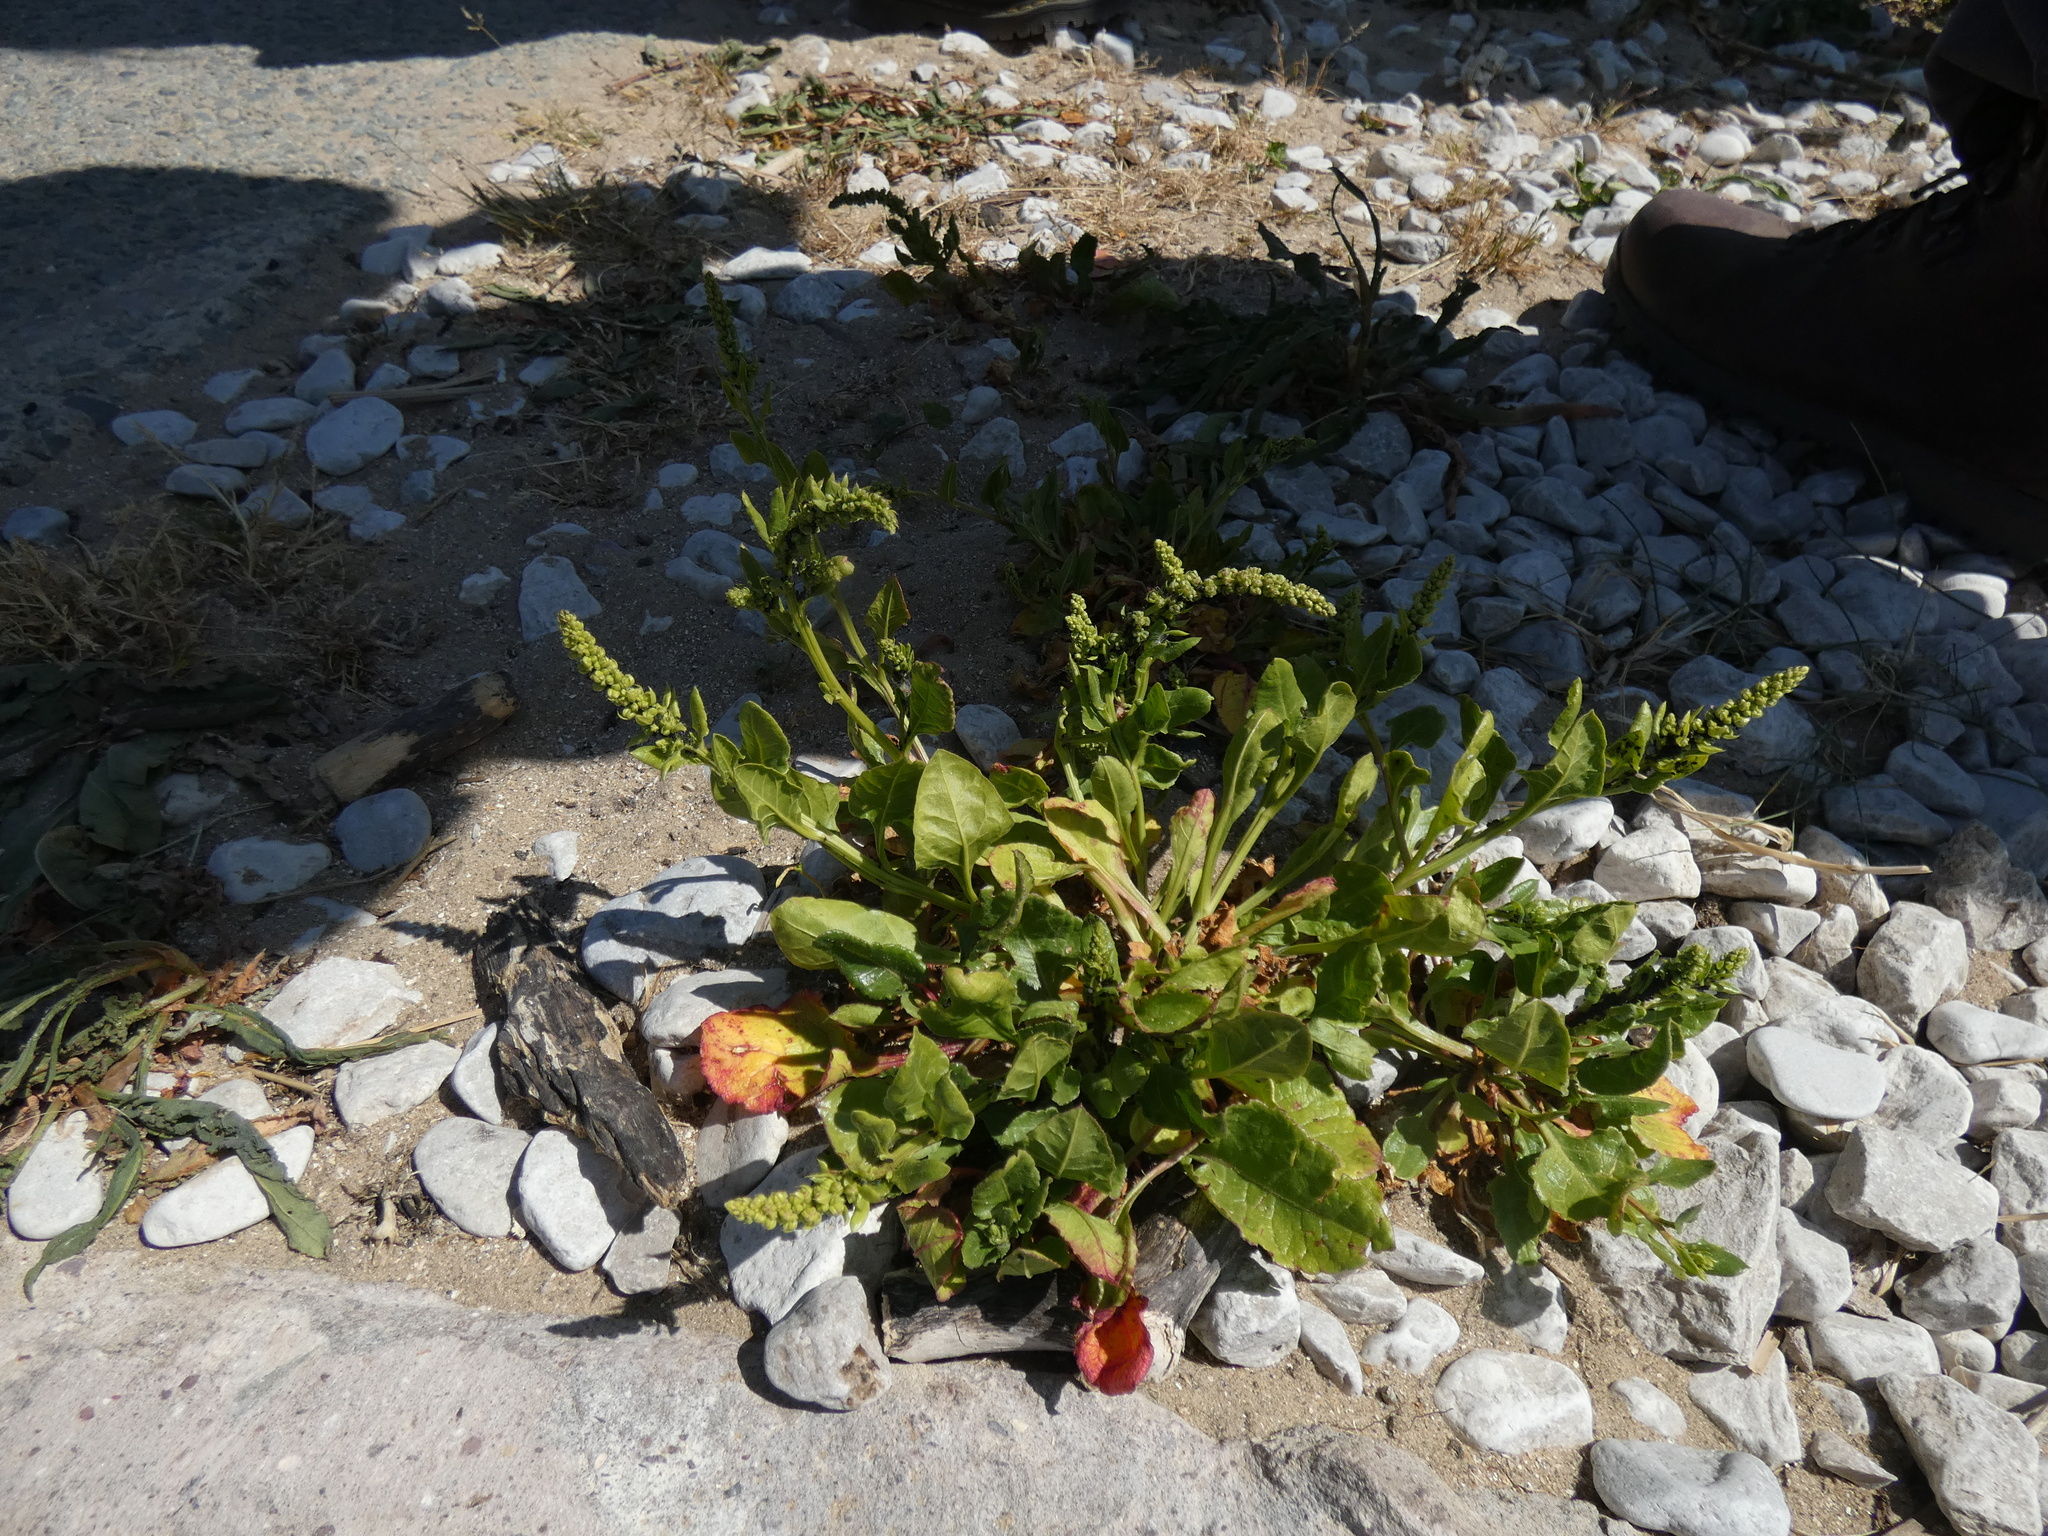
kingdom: Plantae
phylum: Tracheophyta
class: Magnoliopsida
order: Caryophyllales
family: Amaranthaceae
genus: Beta
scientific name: Beta vulgaris
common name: Beet
